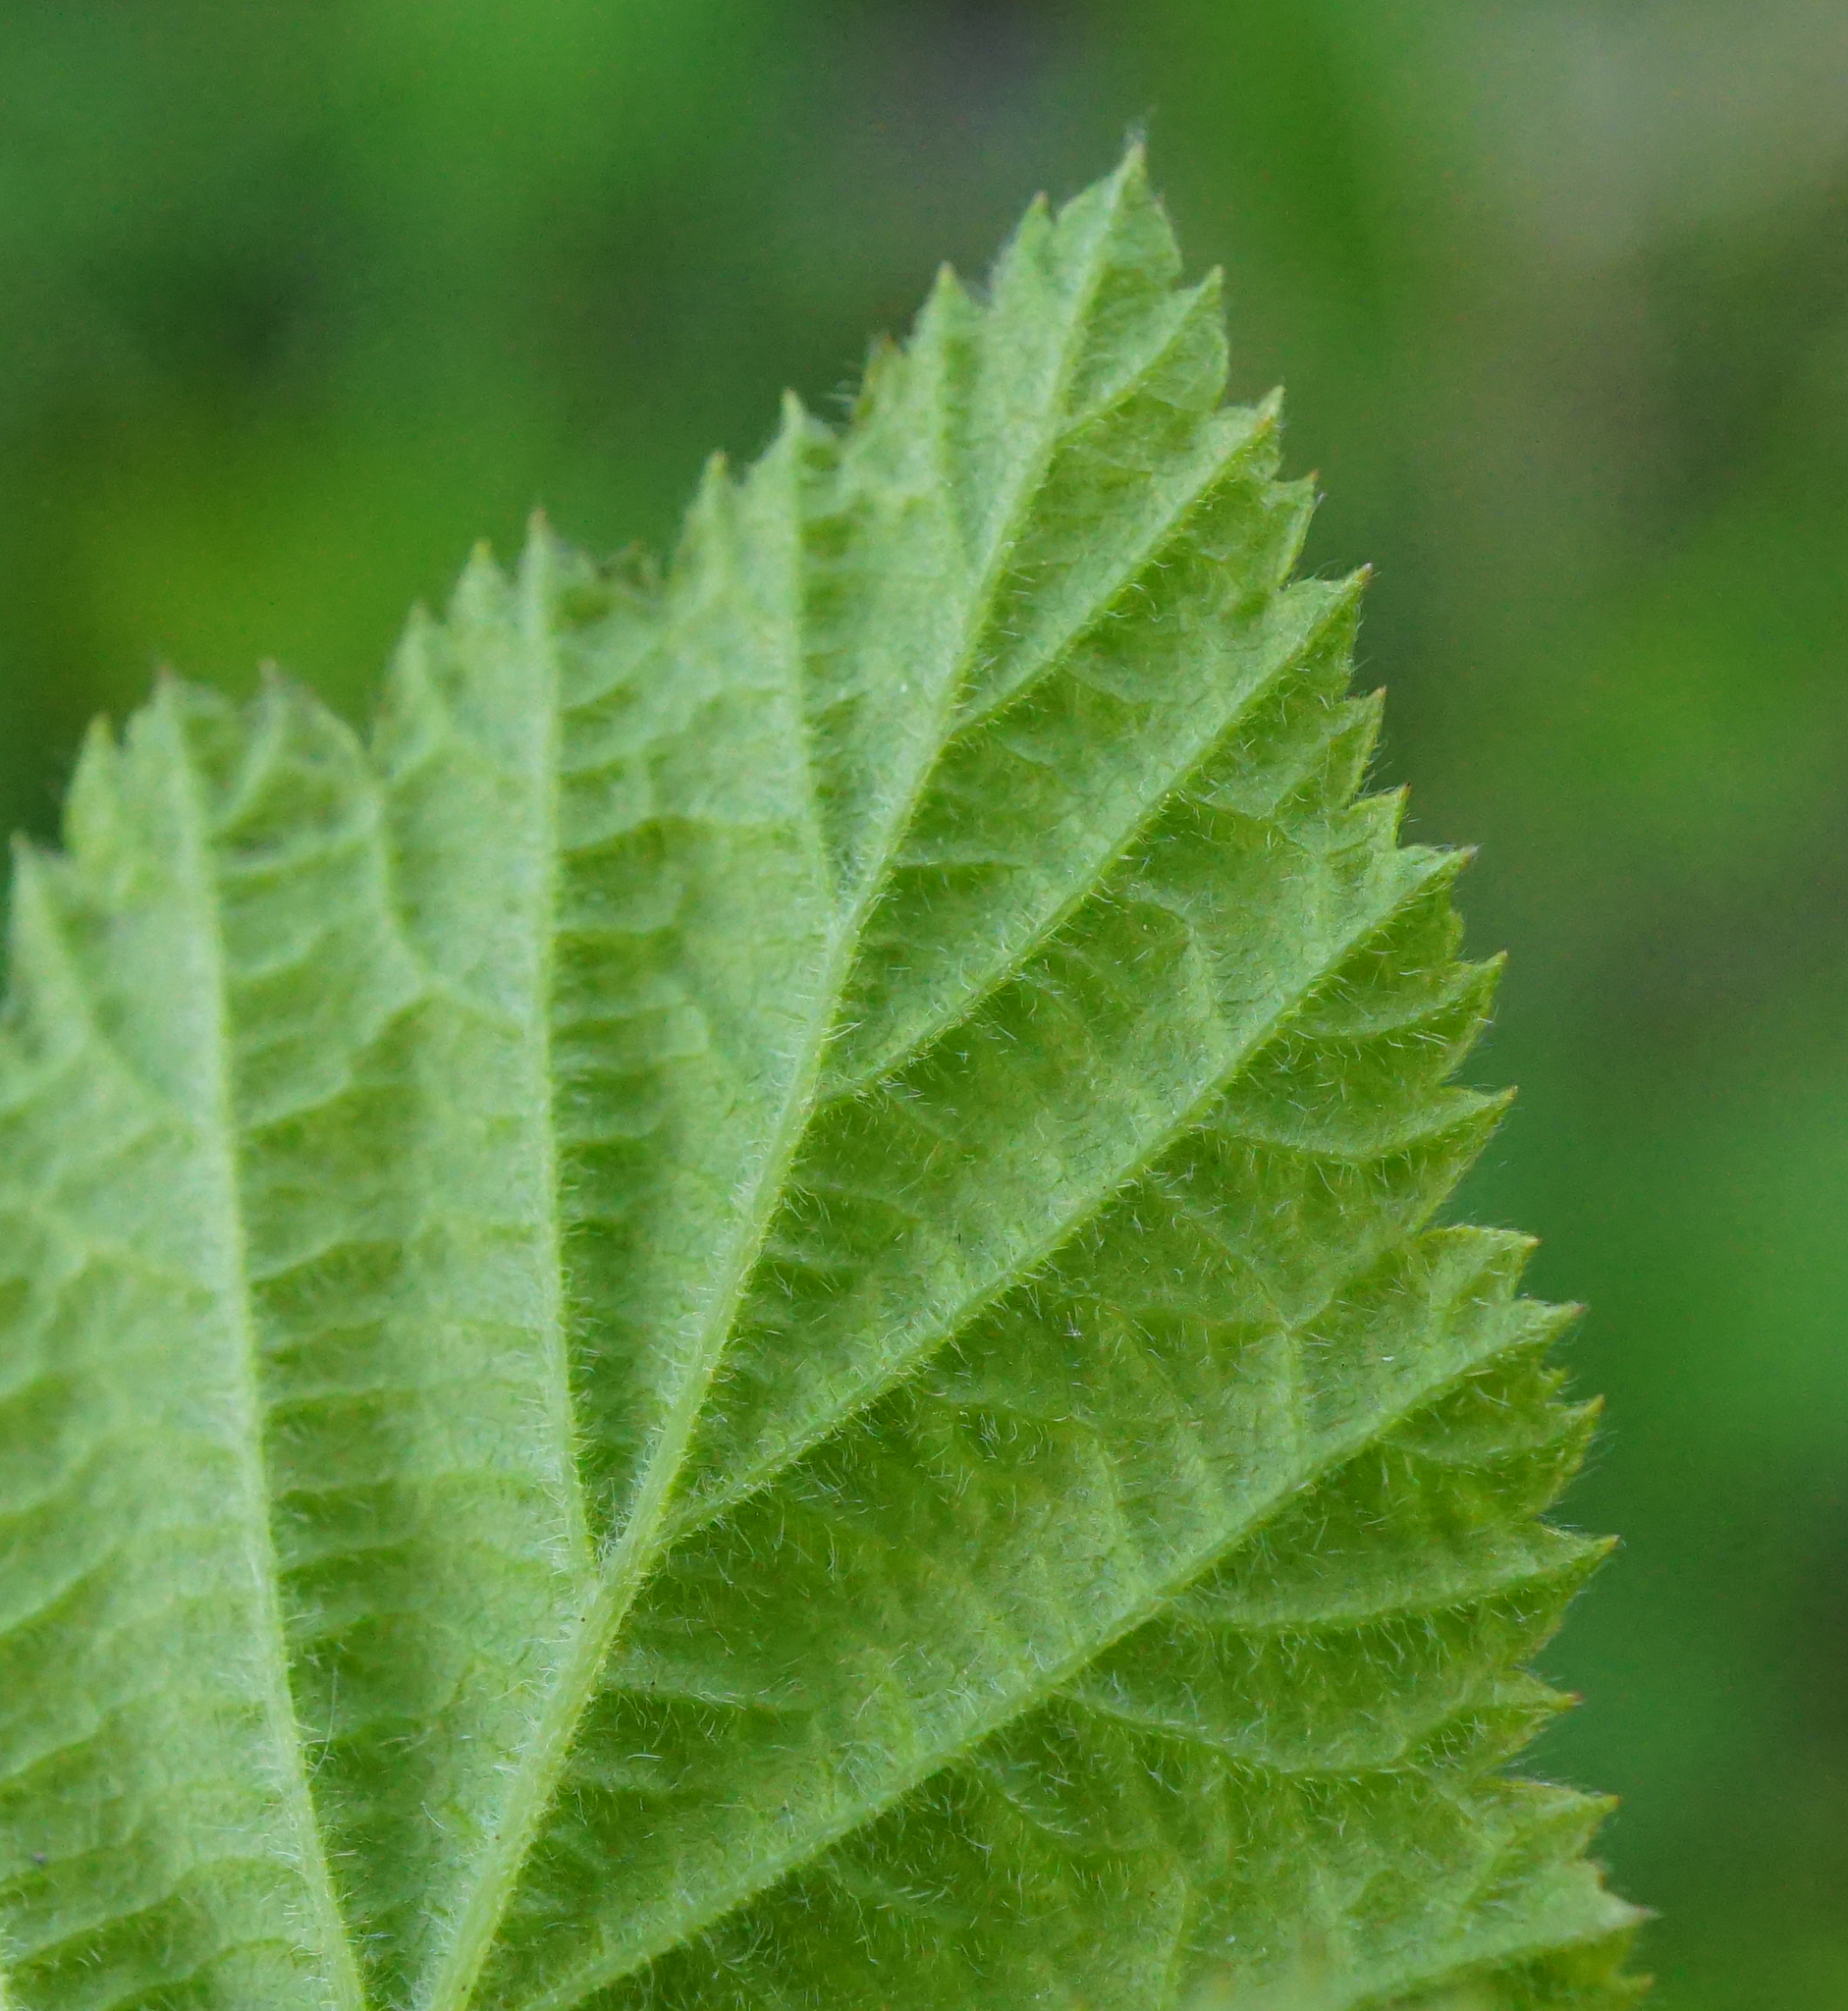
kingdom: Plantae
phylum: Tracheophyta
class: Magnoliopsida
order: Rosales
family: Rosaceae
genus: Rubus
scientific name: Rubus caesius
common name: Dewberry
